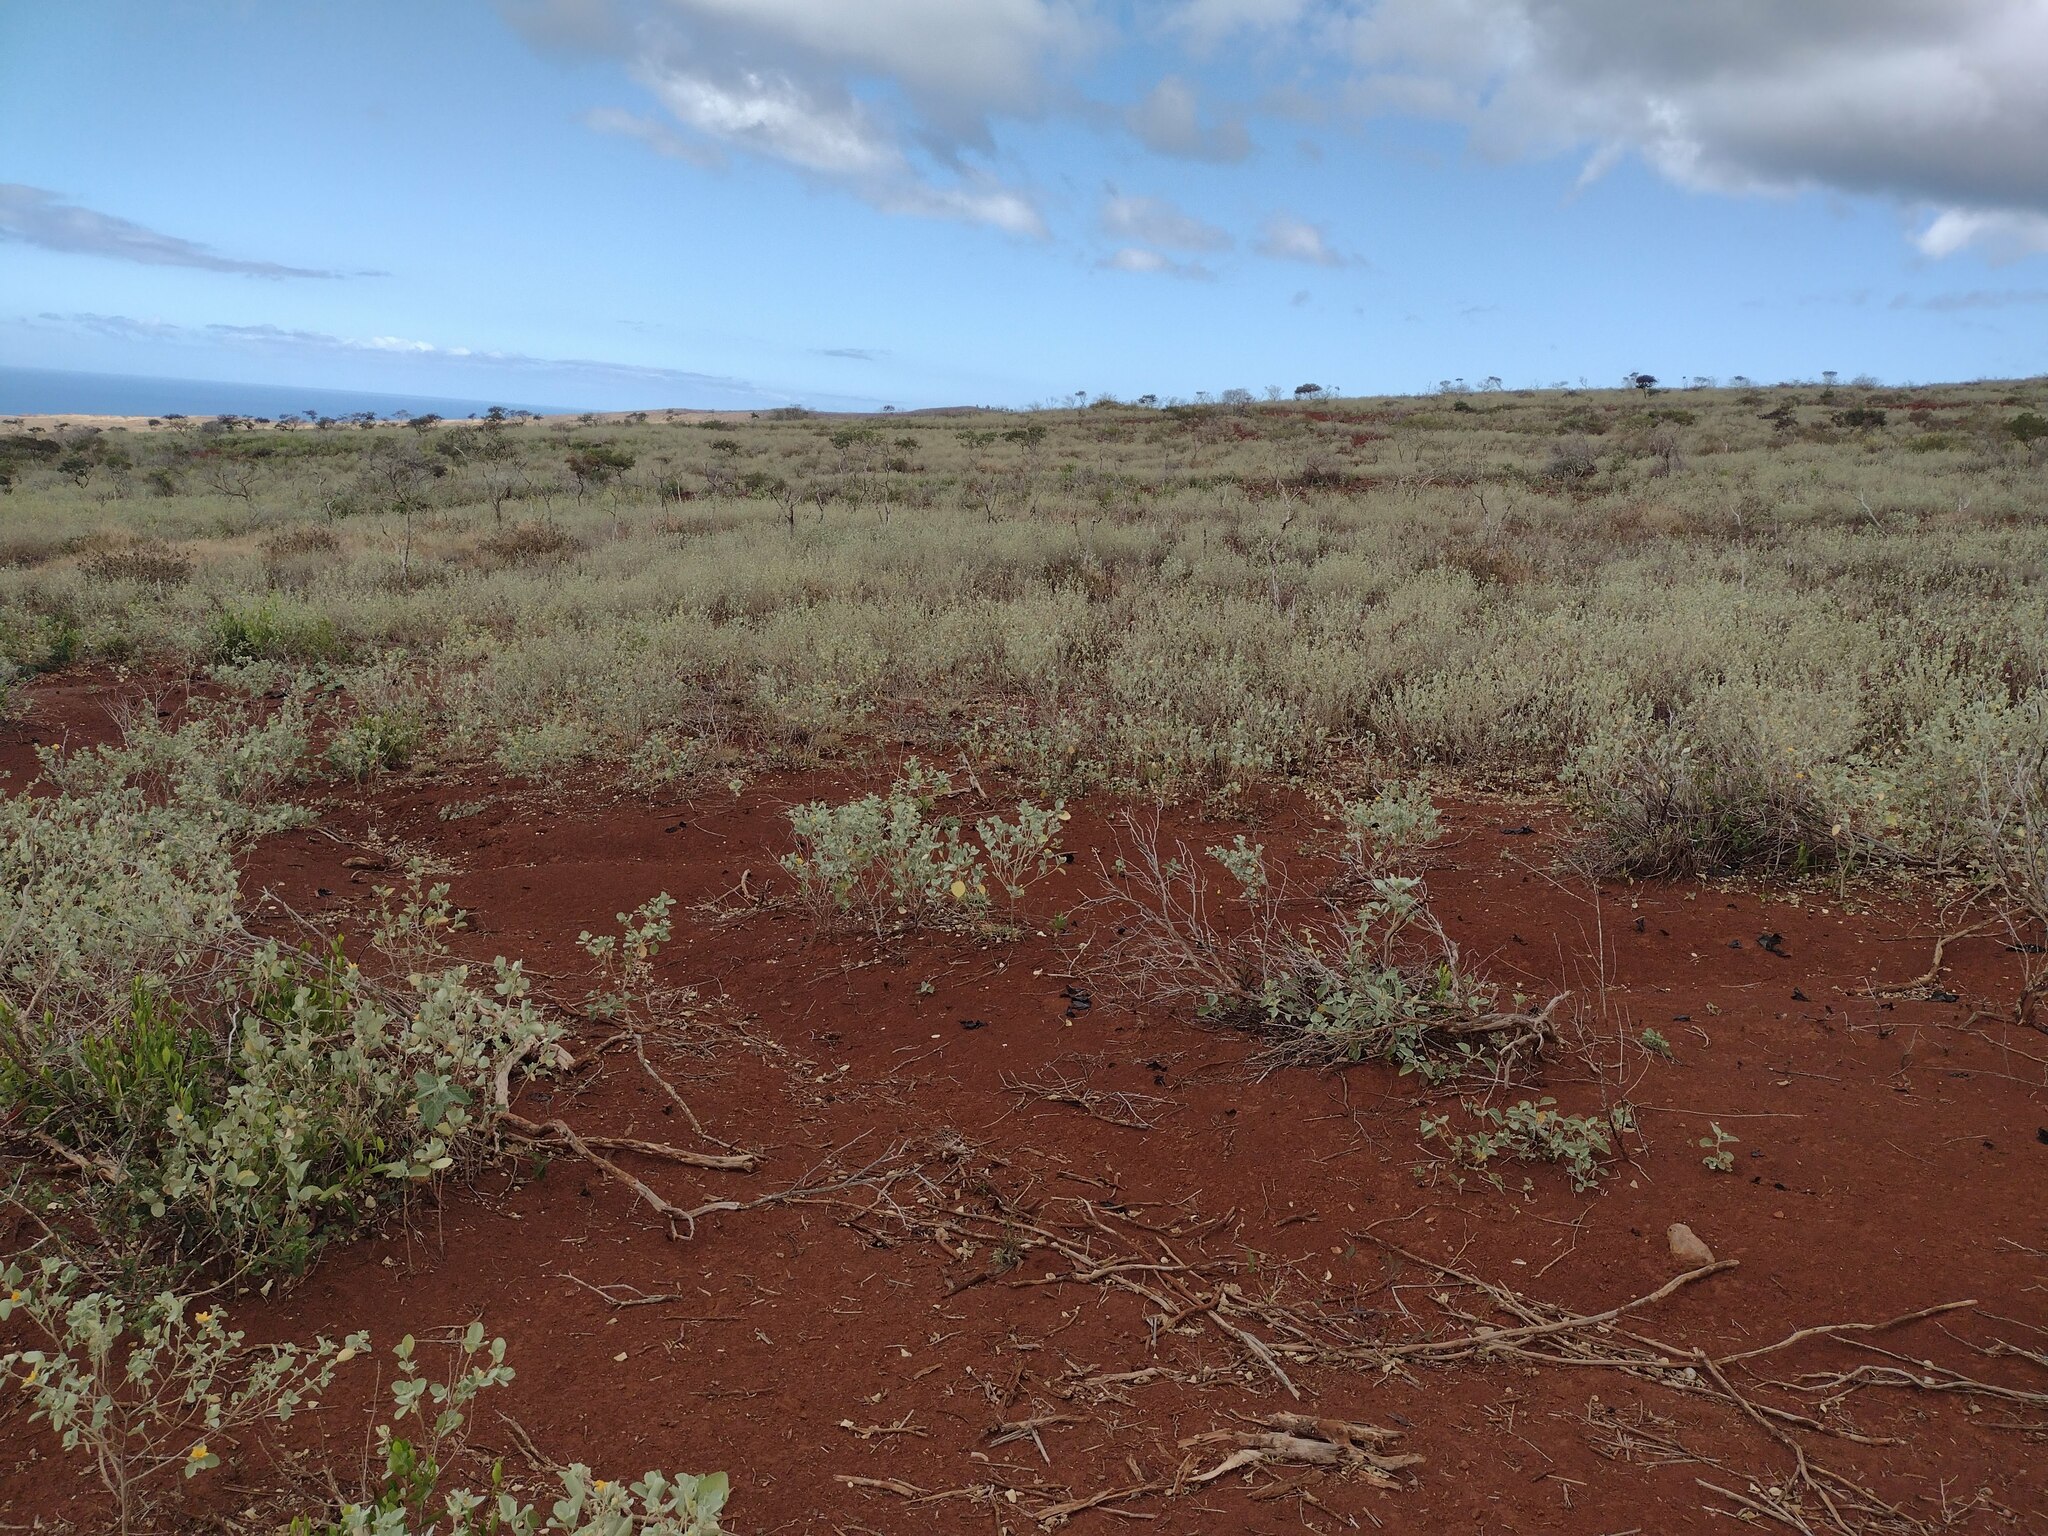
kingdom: Plantae
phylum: Tracheophyta
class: Magnoliopsida
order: Malvales
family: Malvaceae
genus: Sida
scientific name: Sida fallax
